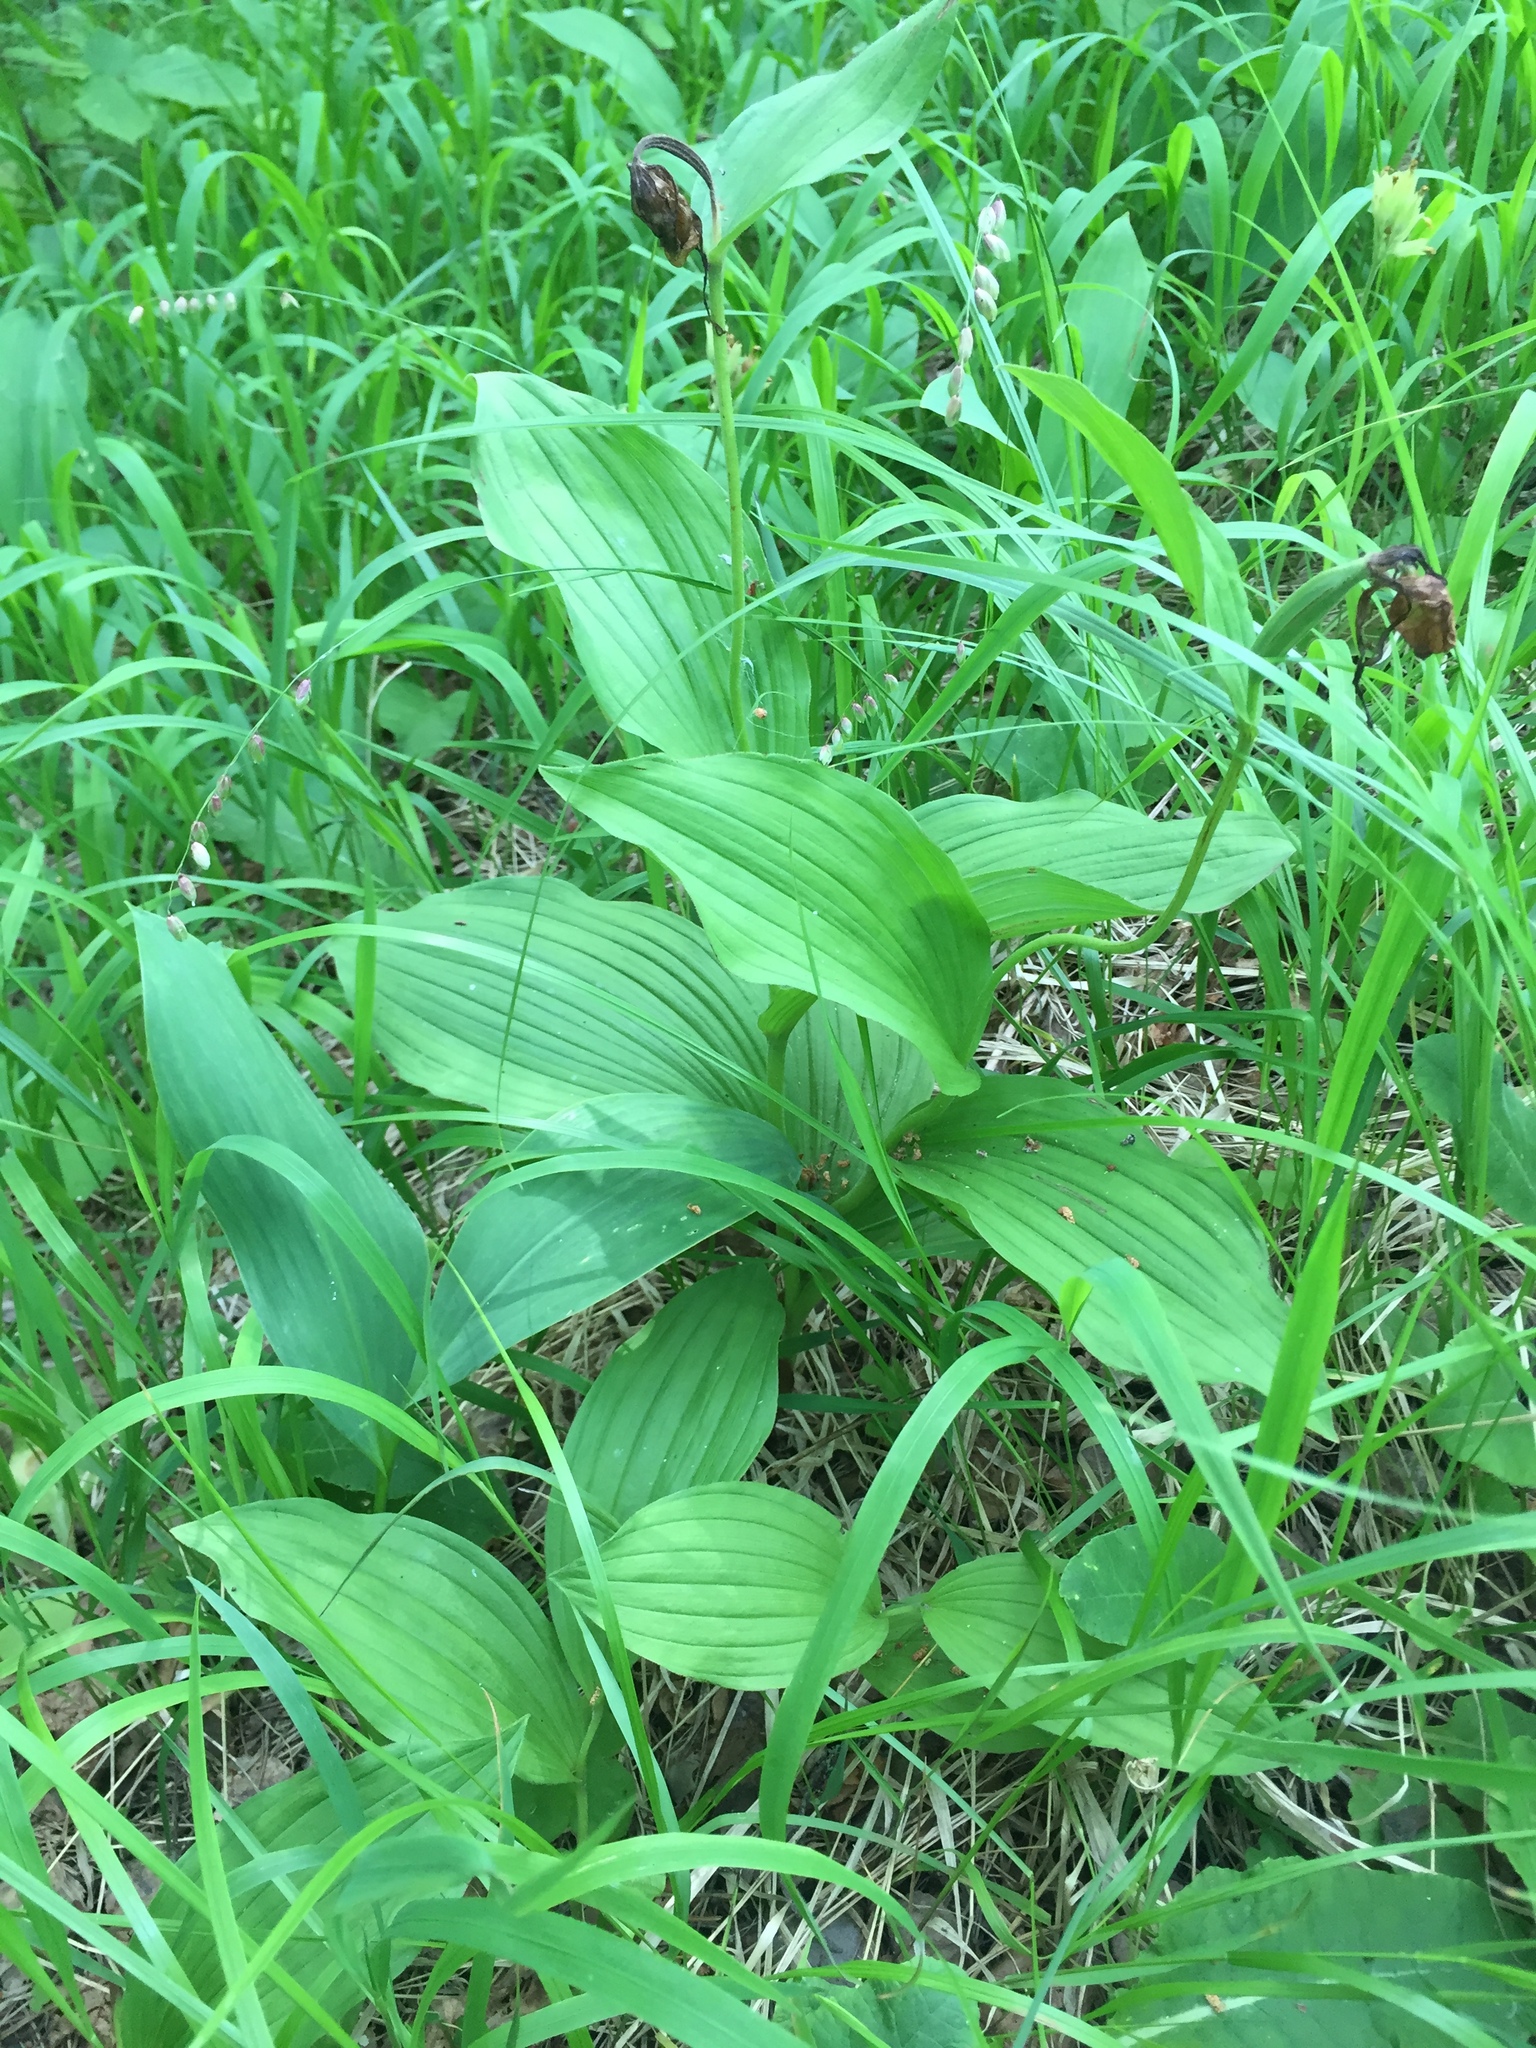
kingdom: Plantae
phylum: Tracheophyta
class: Liliopsida
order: Asparagales
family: Orchidaceae
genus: Cypripedium
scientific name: Cypripedium calceolus
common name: Lady's-slipper
